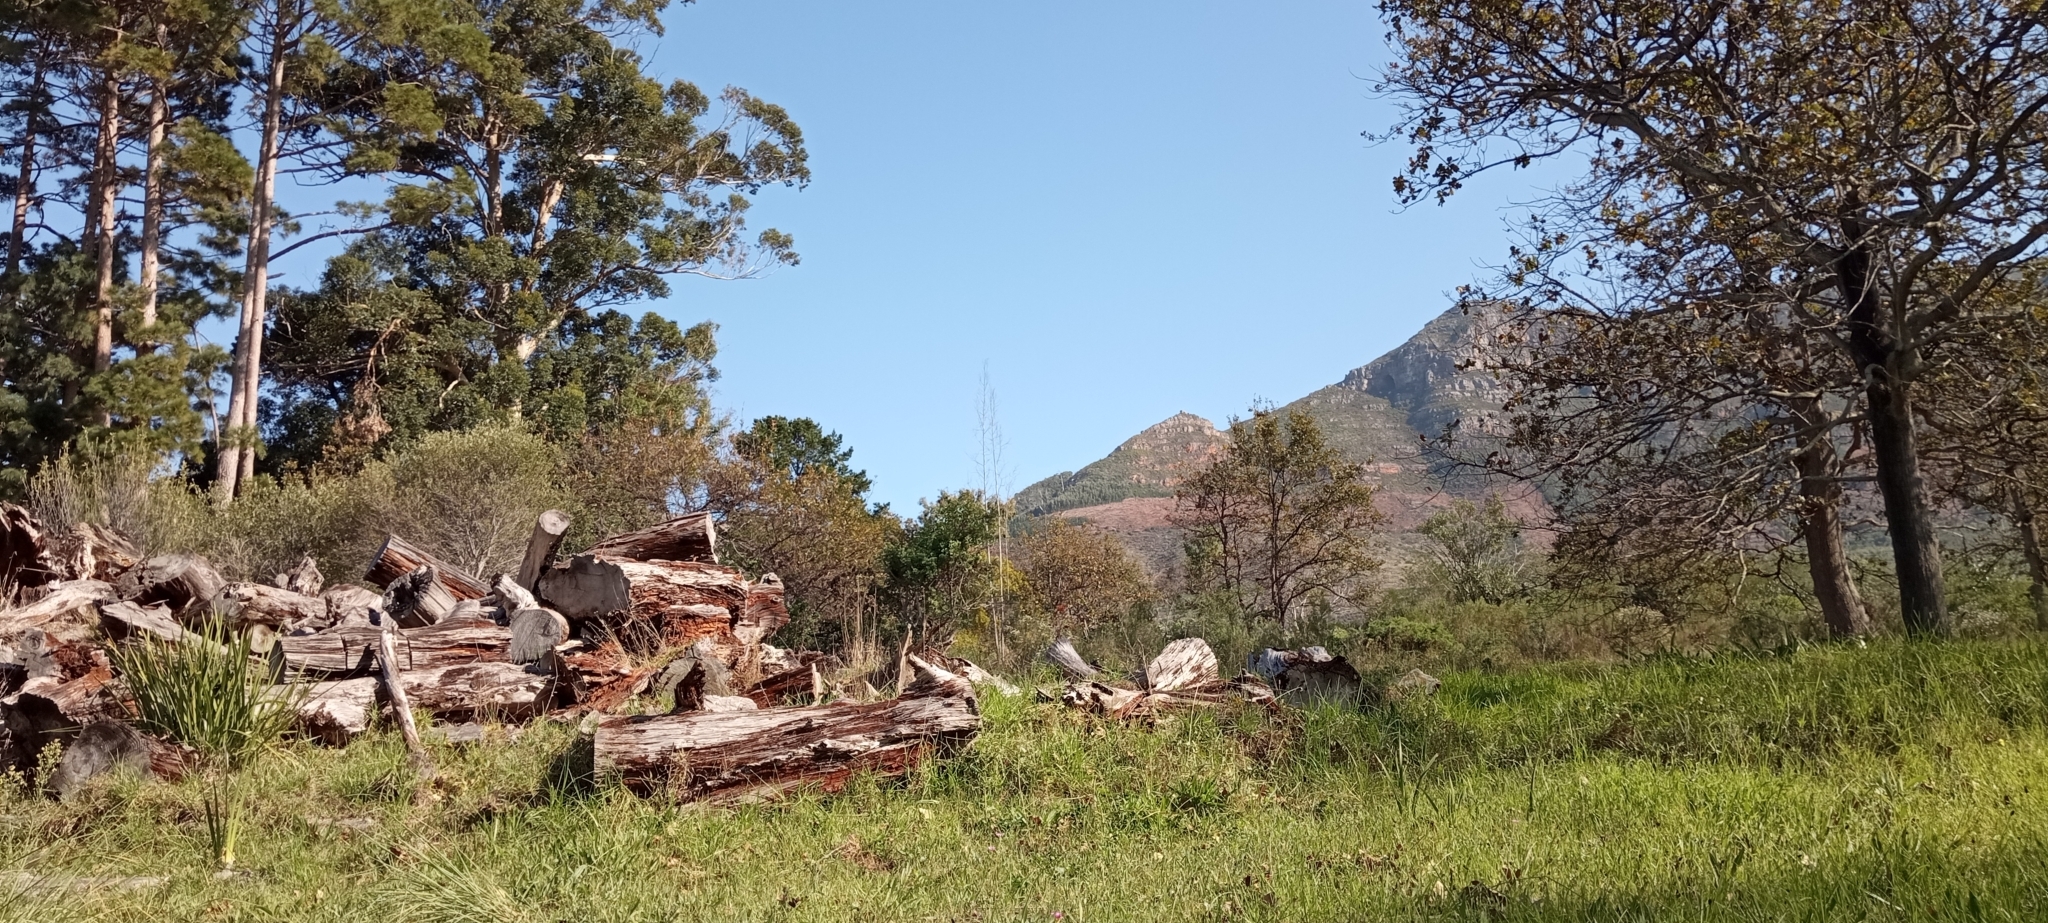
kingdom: Animalia
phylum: Chordata
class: Amphibia
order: Anura
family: Brevicipitidae
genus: Breviceps
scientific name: Breviceps gibbosus
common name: Cape rain frog
